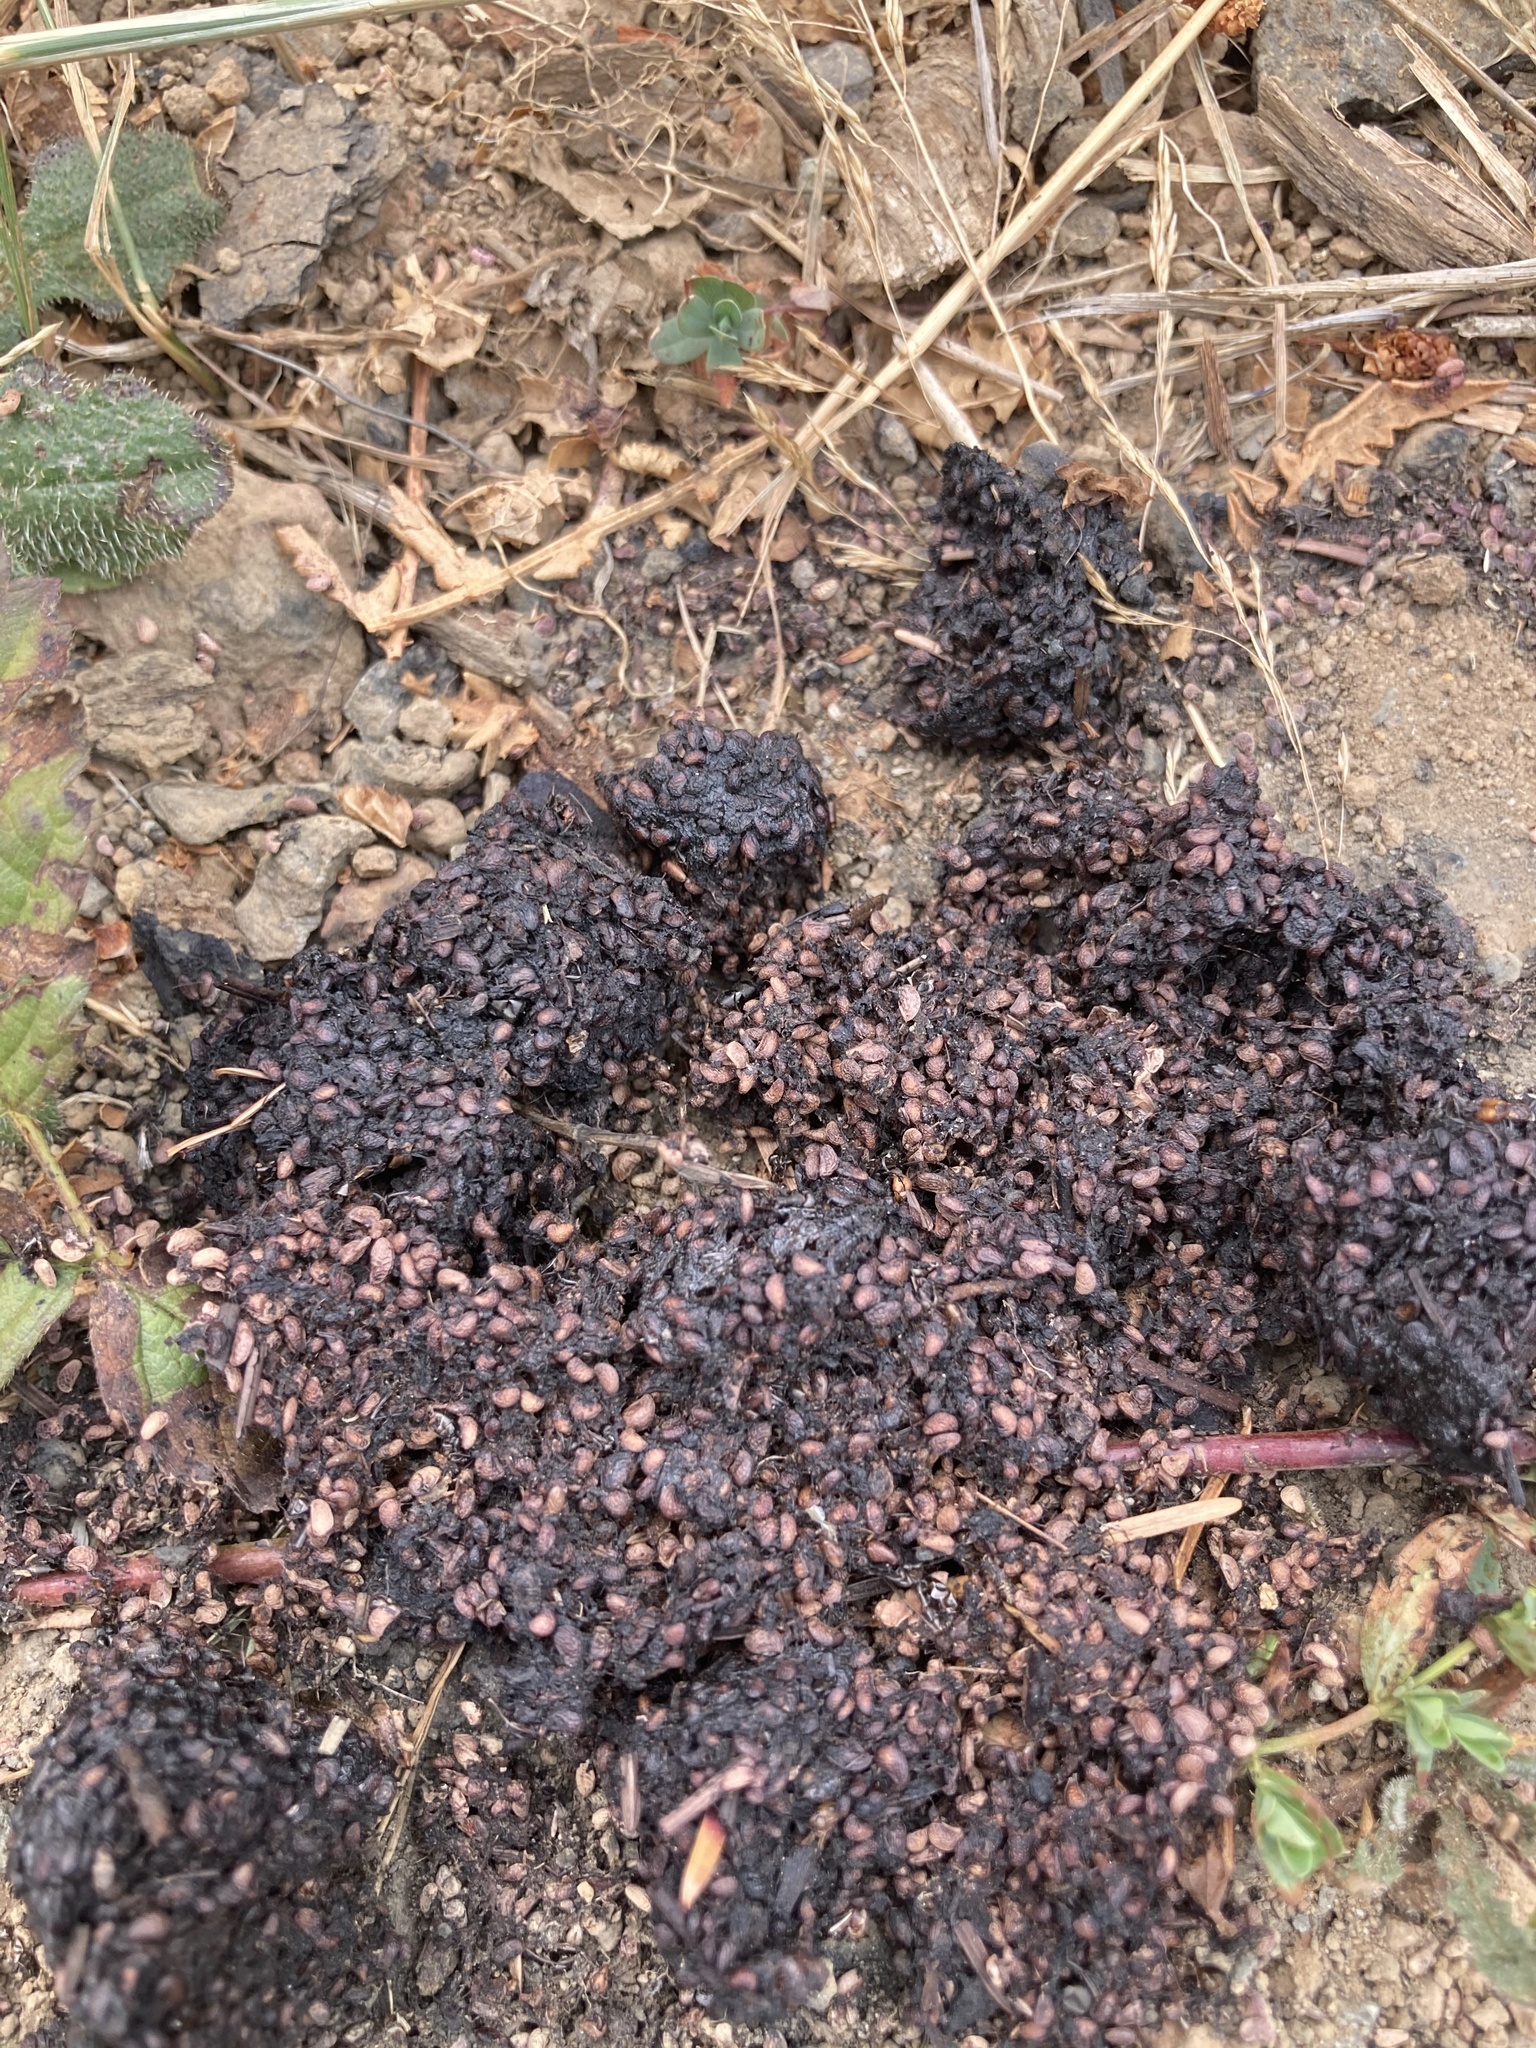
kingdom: Animalia
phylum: Chordata
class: Mammalia
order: Carnivora
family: Ursidae
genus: Ursus
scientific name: Ursus americanus
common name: American black bear
